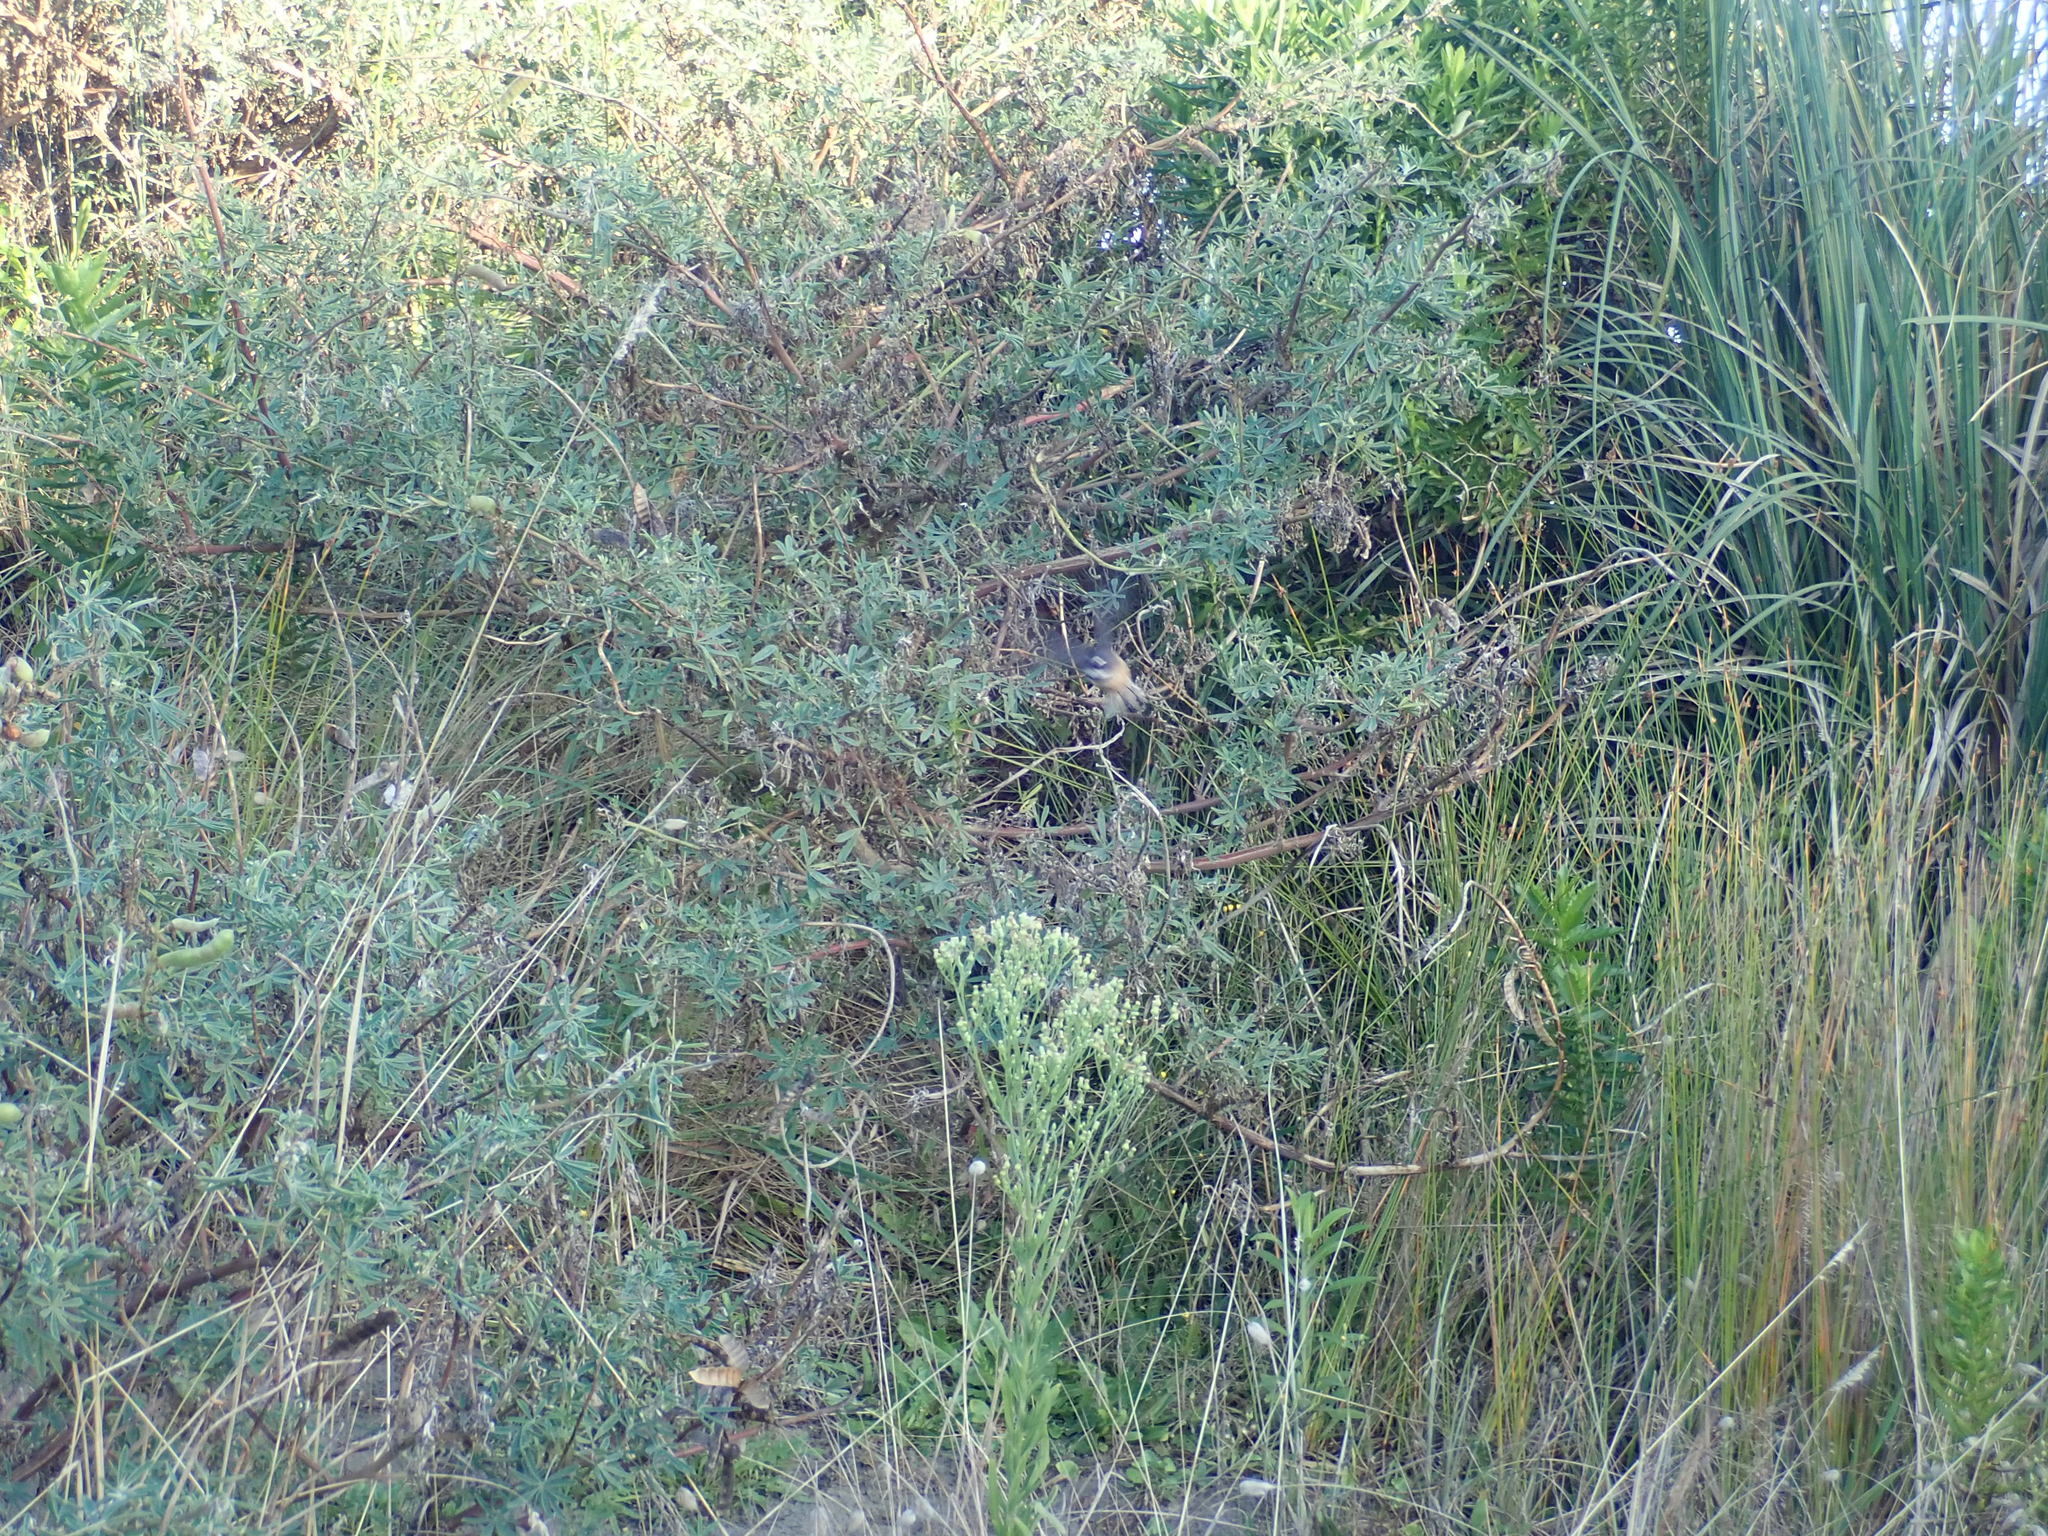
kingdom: Animalia
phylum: Chordata
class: Aves
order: Passeriformes
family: Rhipiduridae
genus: Rhipidura
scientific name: Rhipidura fuliginosa
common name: New zealand fantail
